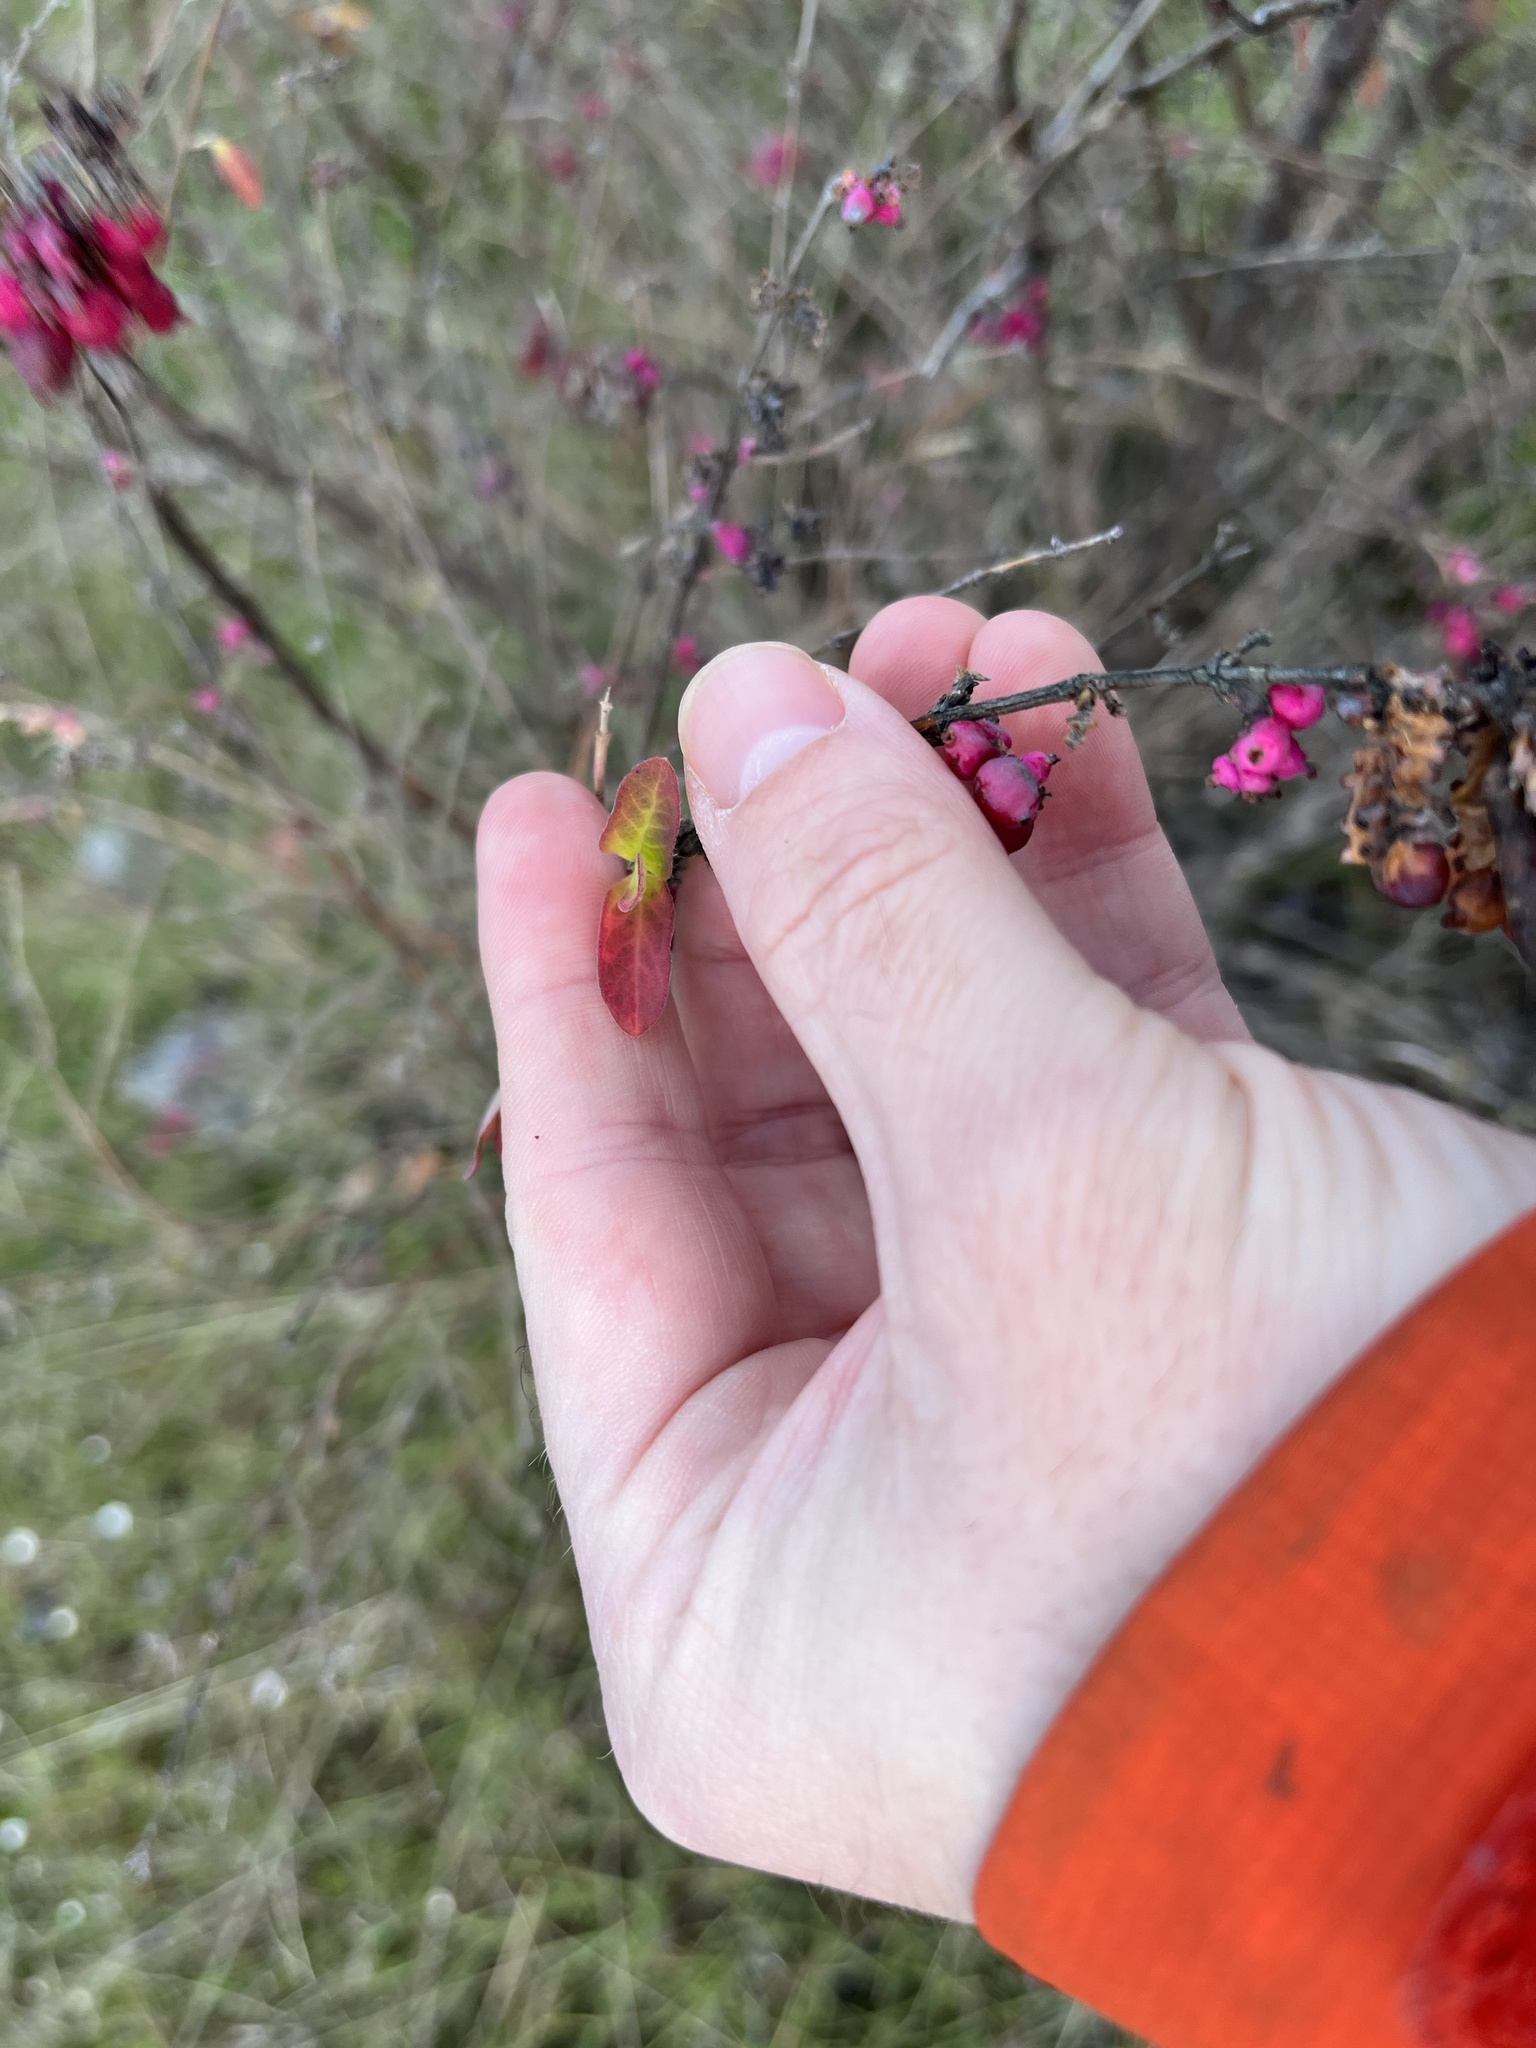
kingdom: Plantae
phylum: Tracheophyta
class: Magnoliopsida
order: Dipsacales
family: Caprifoliaceae
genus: Symphoricarpos
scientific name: Symphoricarpos orbiculatus
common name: Coralberry
